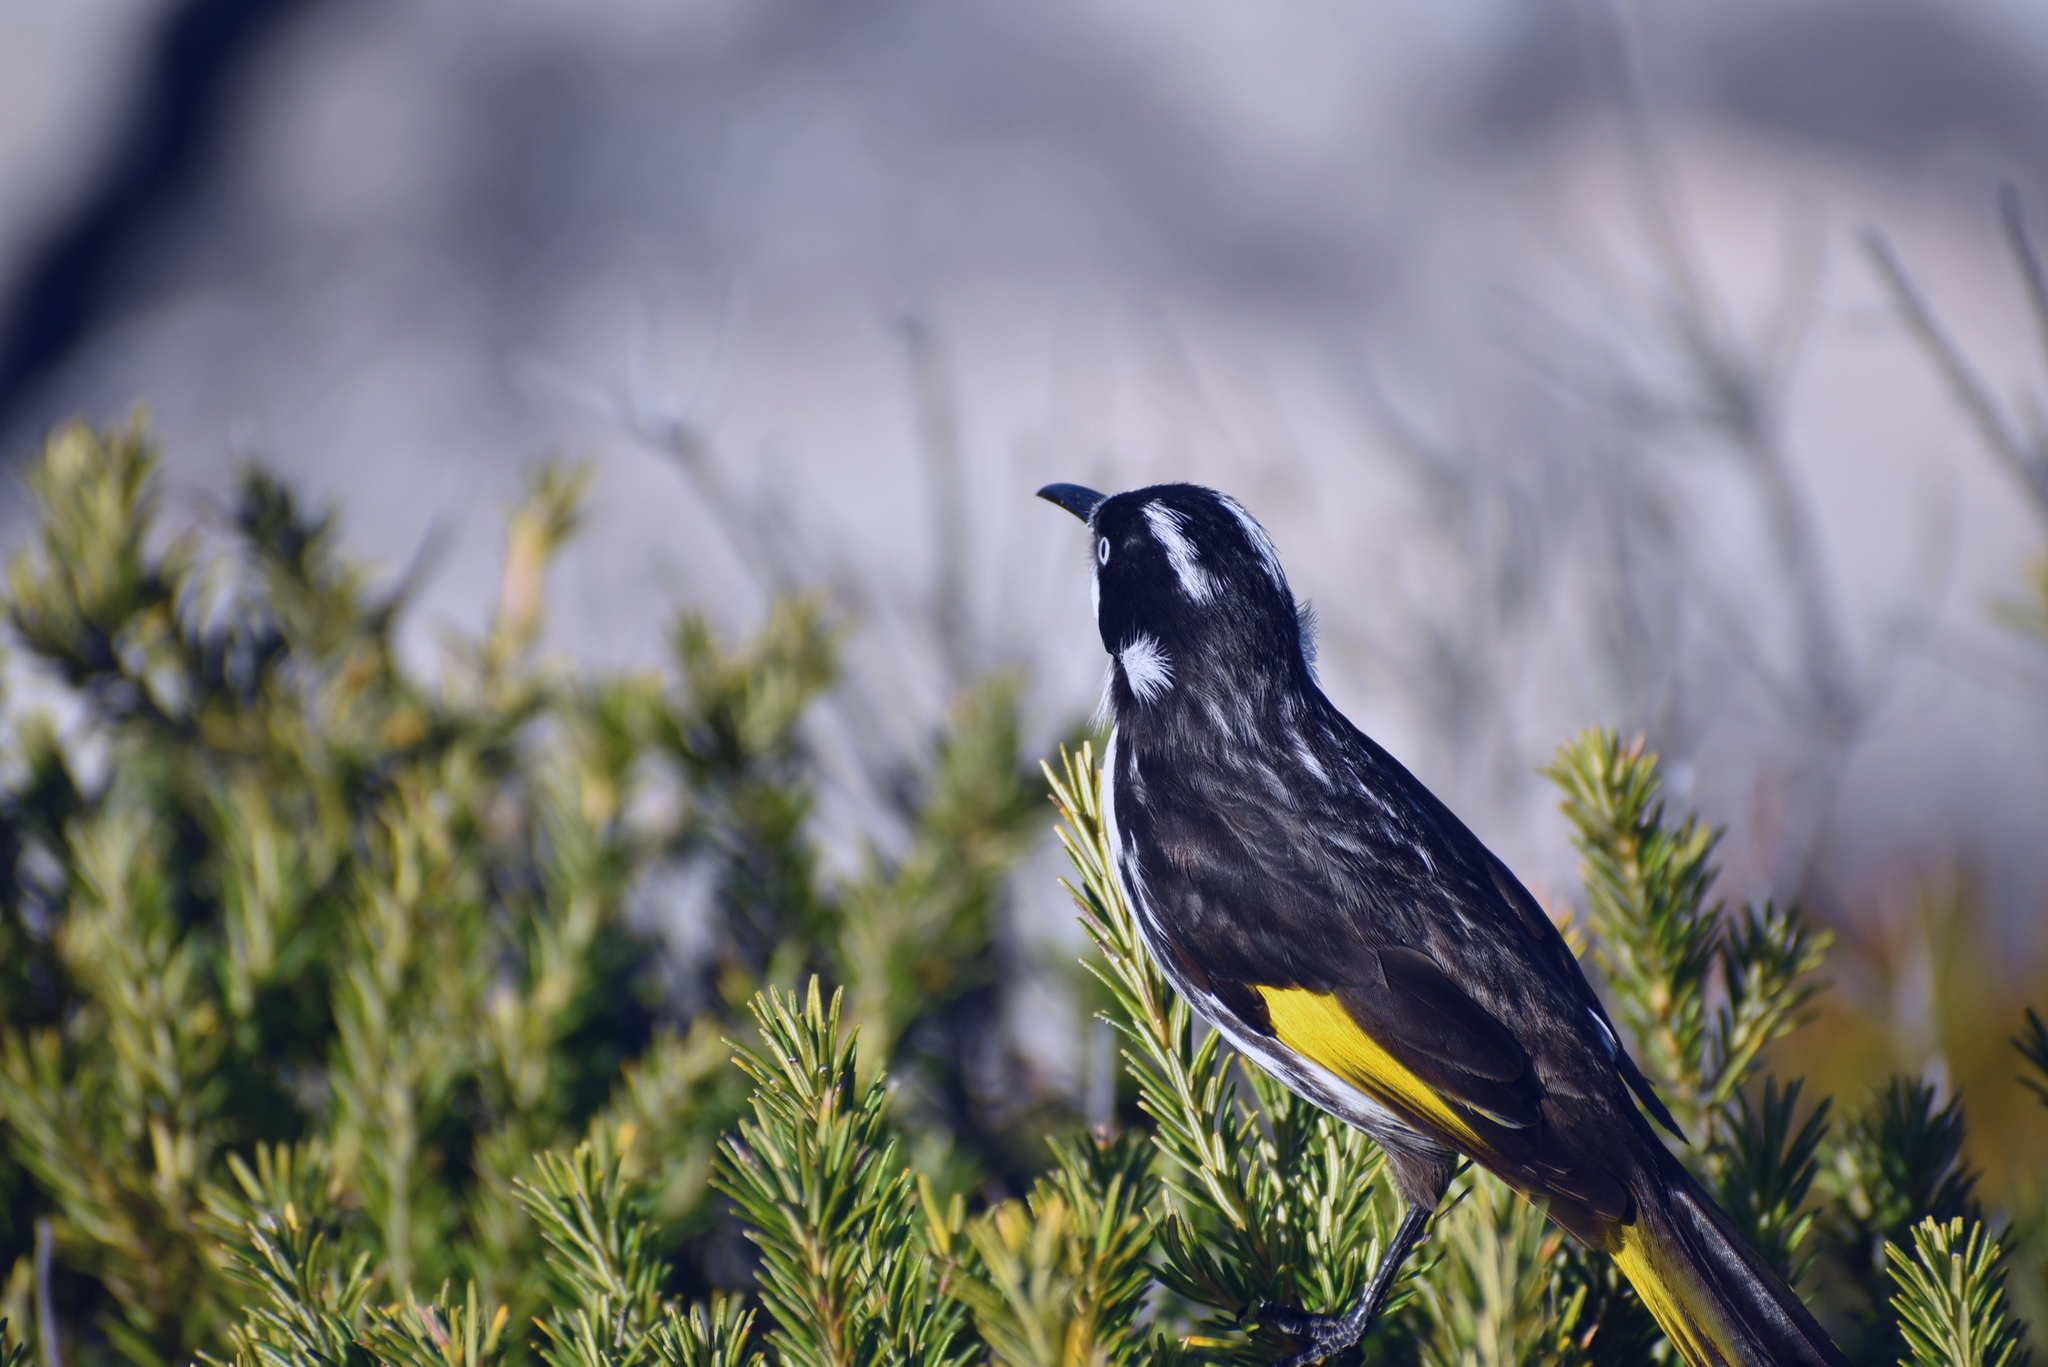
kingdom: Animalia
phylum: Chordata
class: Aves
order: Passeriformes
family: Meliphagidae
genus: Phylidonyris
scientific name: Phylidonyris novaehollandiae
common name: New holland honeyeater
